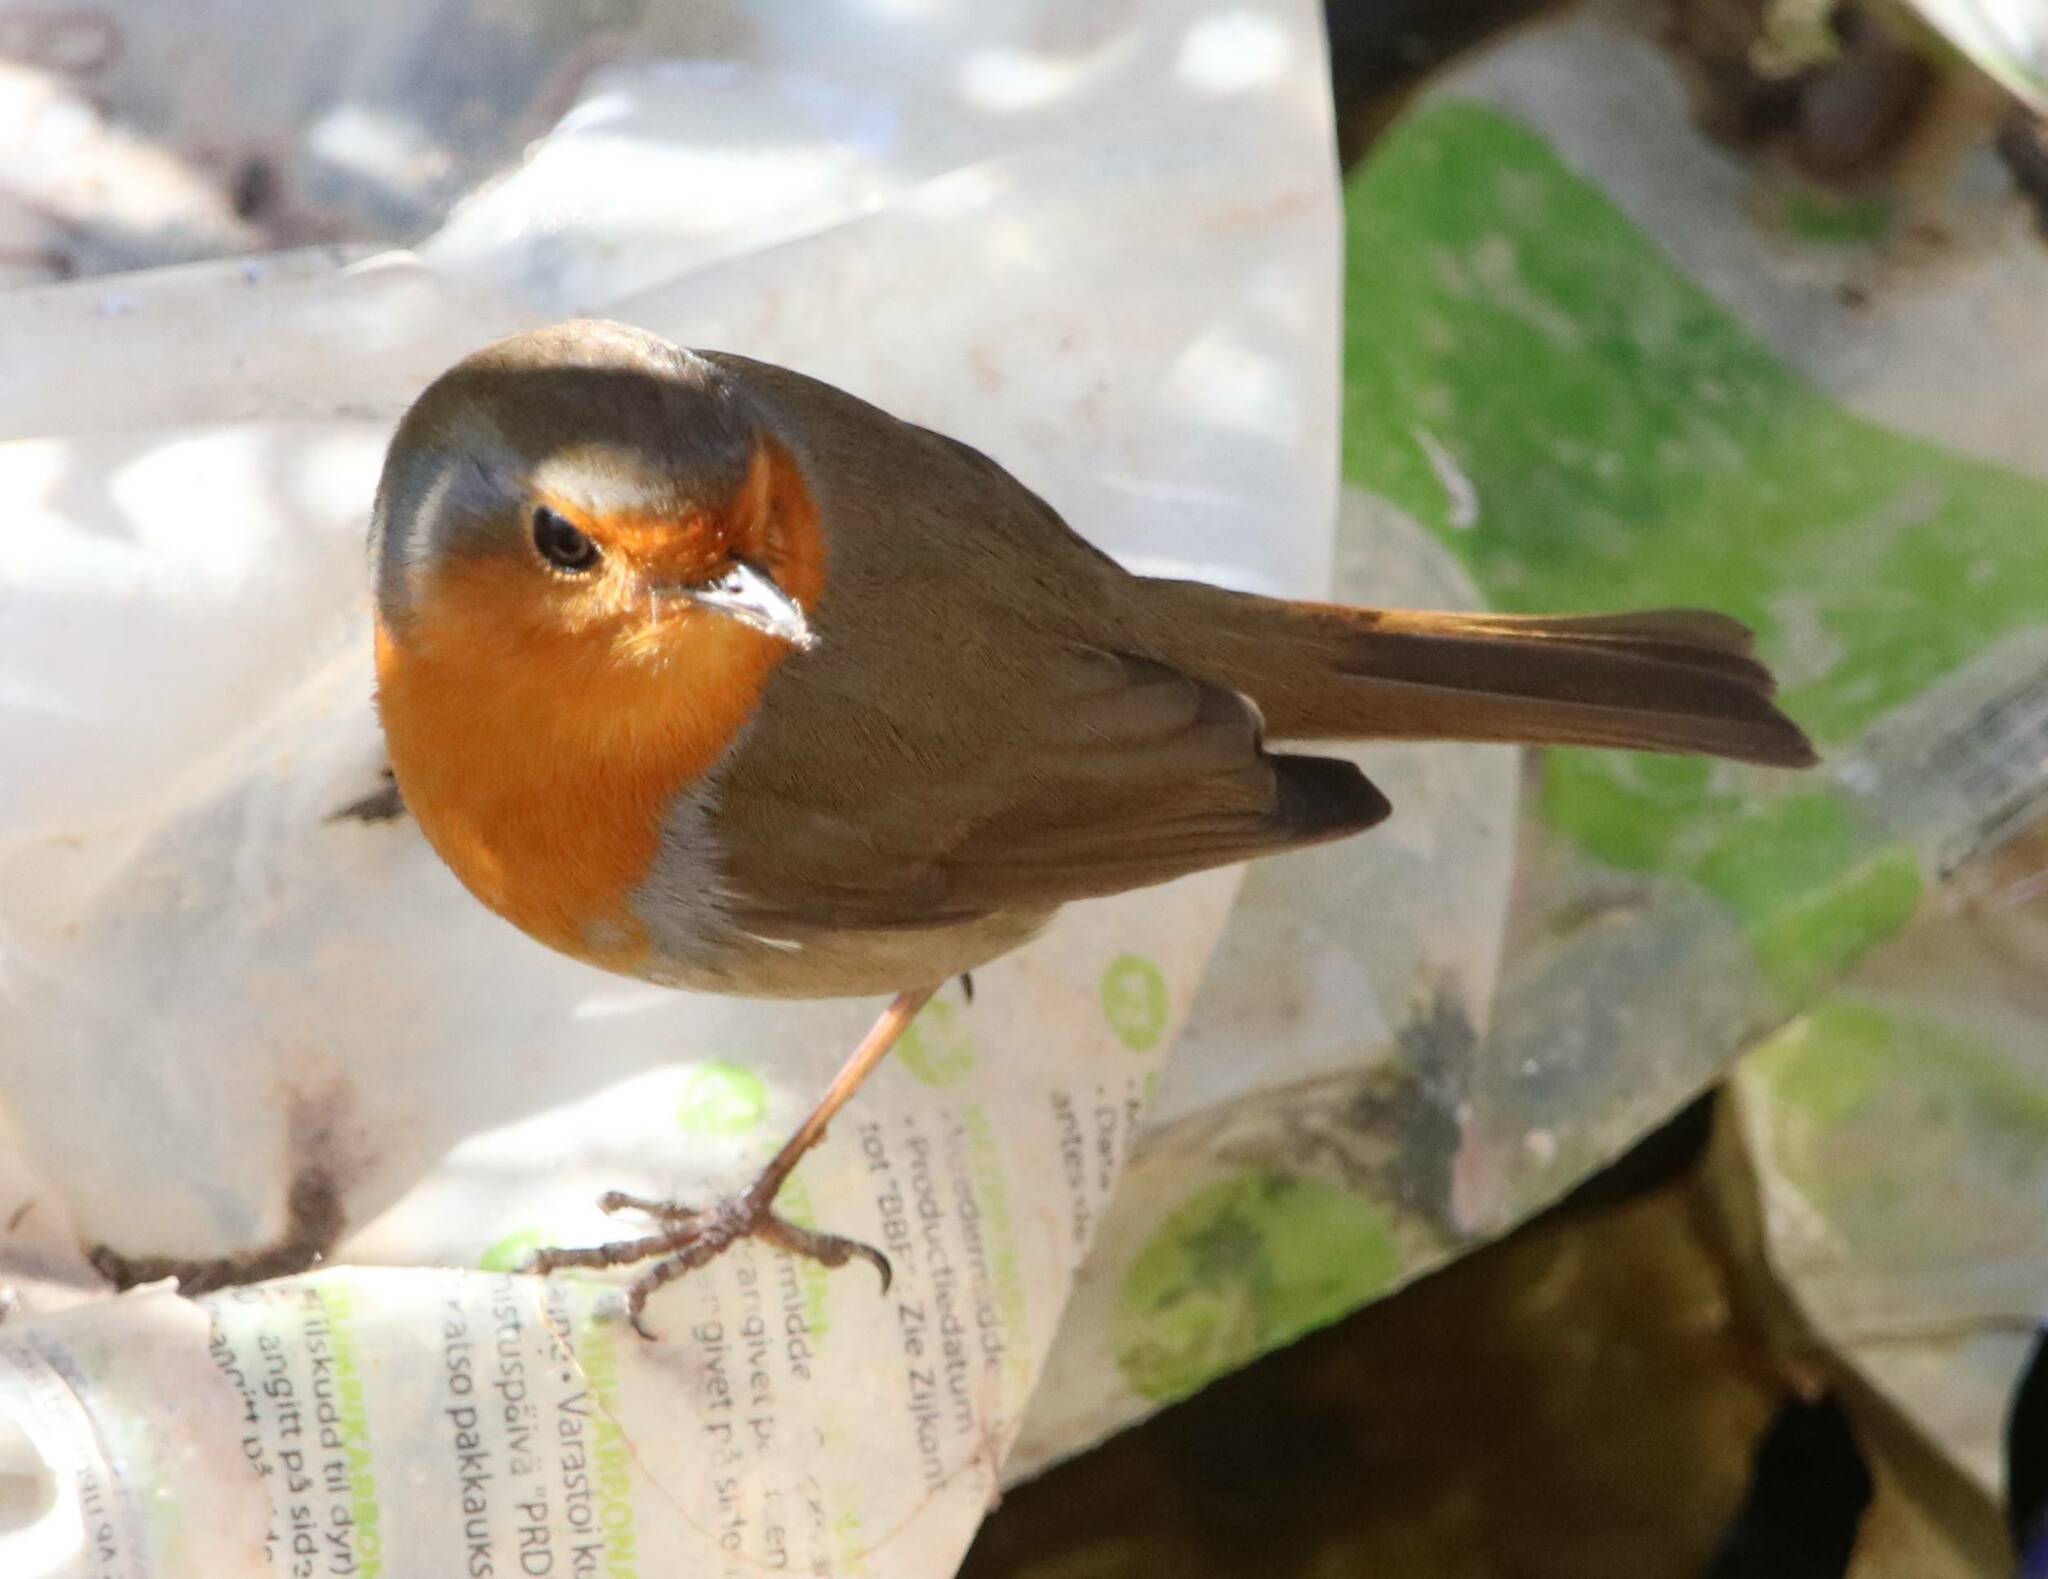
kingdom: Animalia
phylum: Chordata
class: Aves
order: Passeriformes
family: Muscicapidae
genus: Erithacus
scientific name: Erithacus rubecula
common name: European robin
